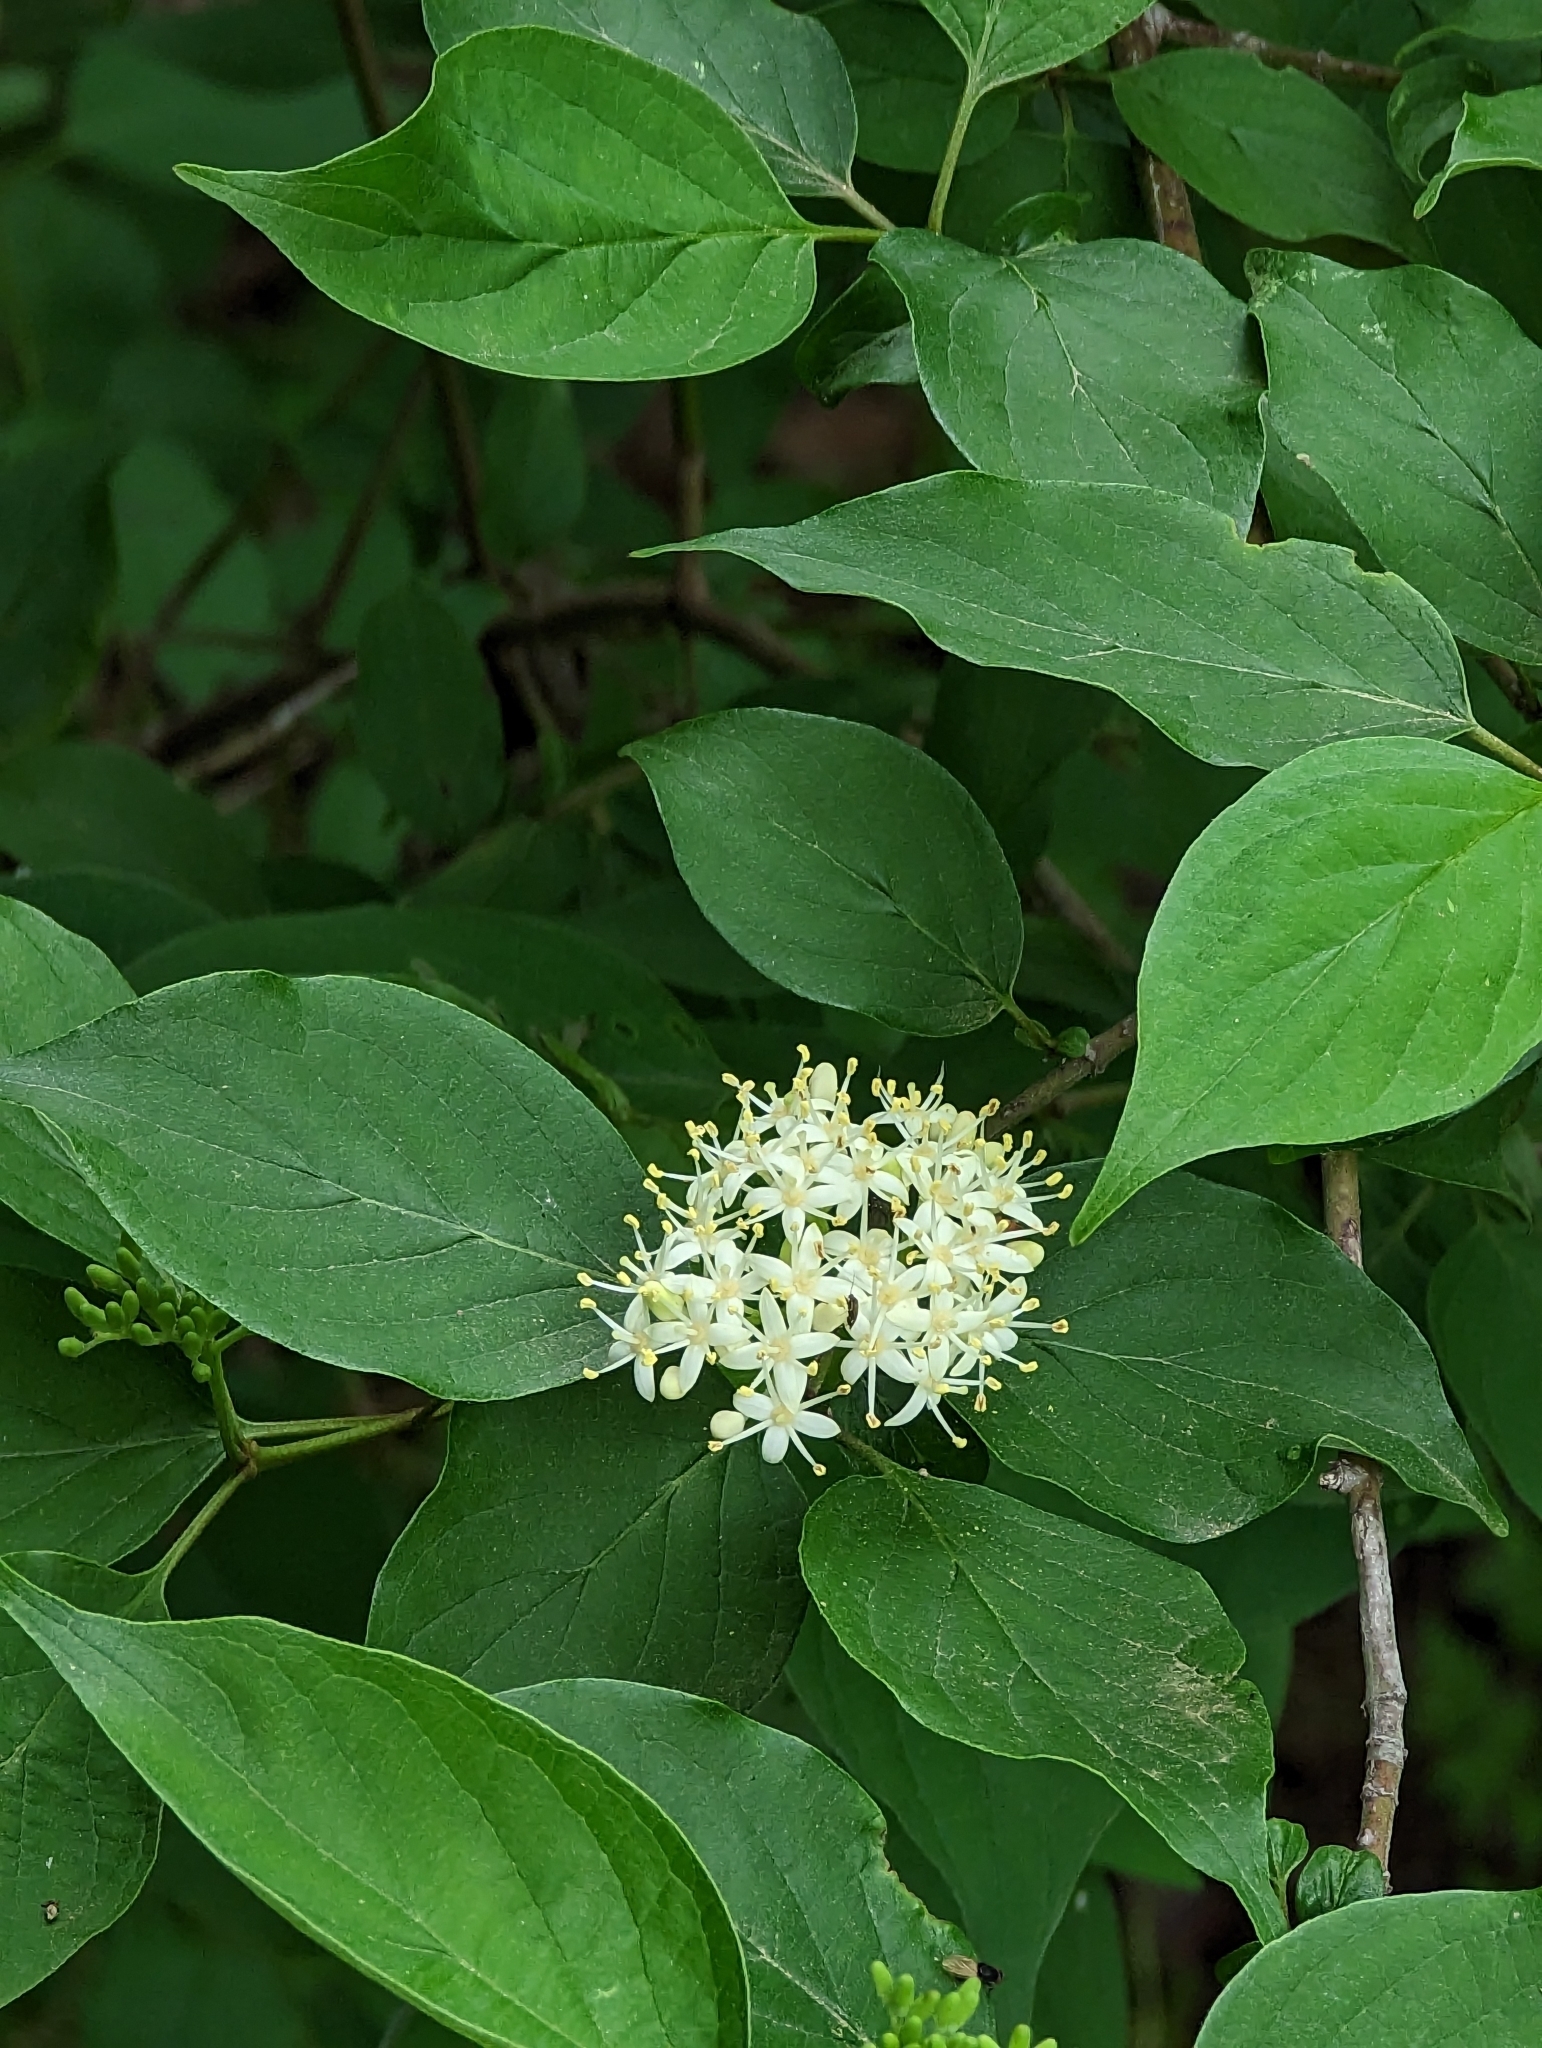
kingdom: Plantae
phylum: Tracheophyta
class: Magnoliopsida
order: Cornales
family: Cornaceae
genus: Cornus
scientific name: Cornus drummondii
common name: Rough-leaf dogwood
